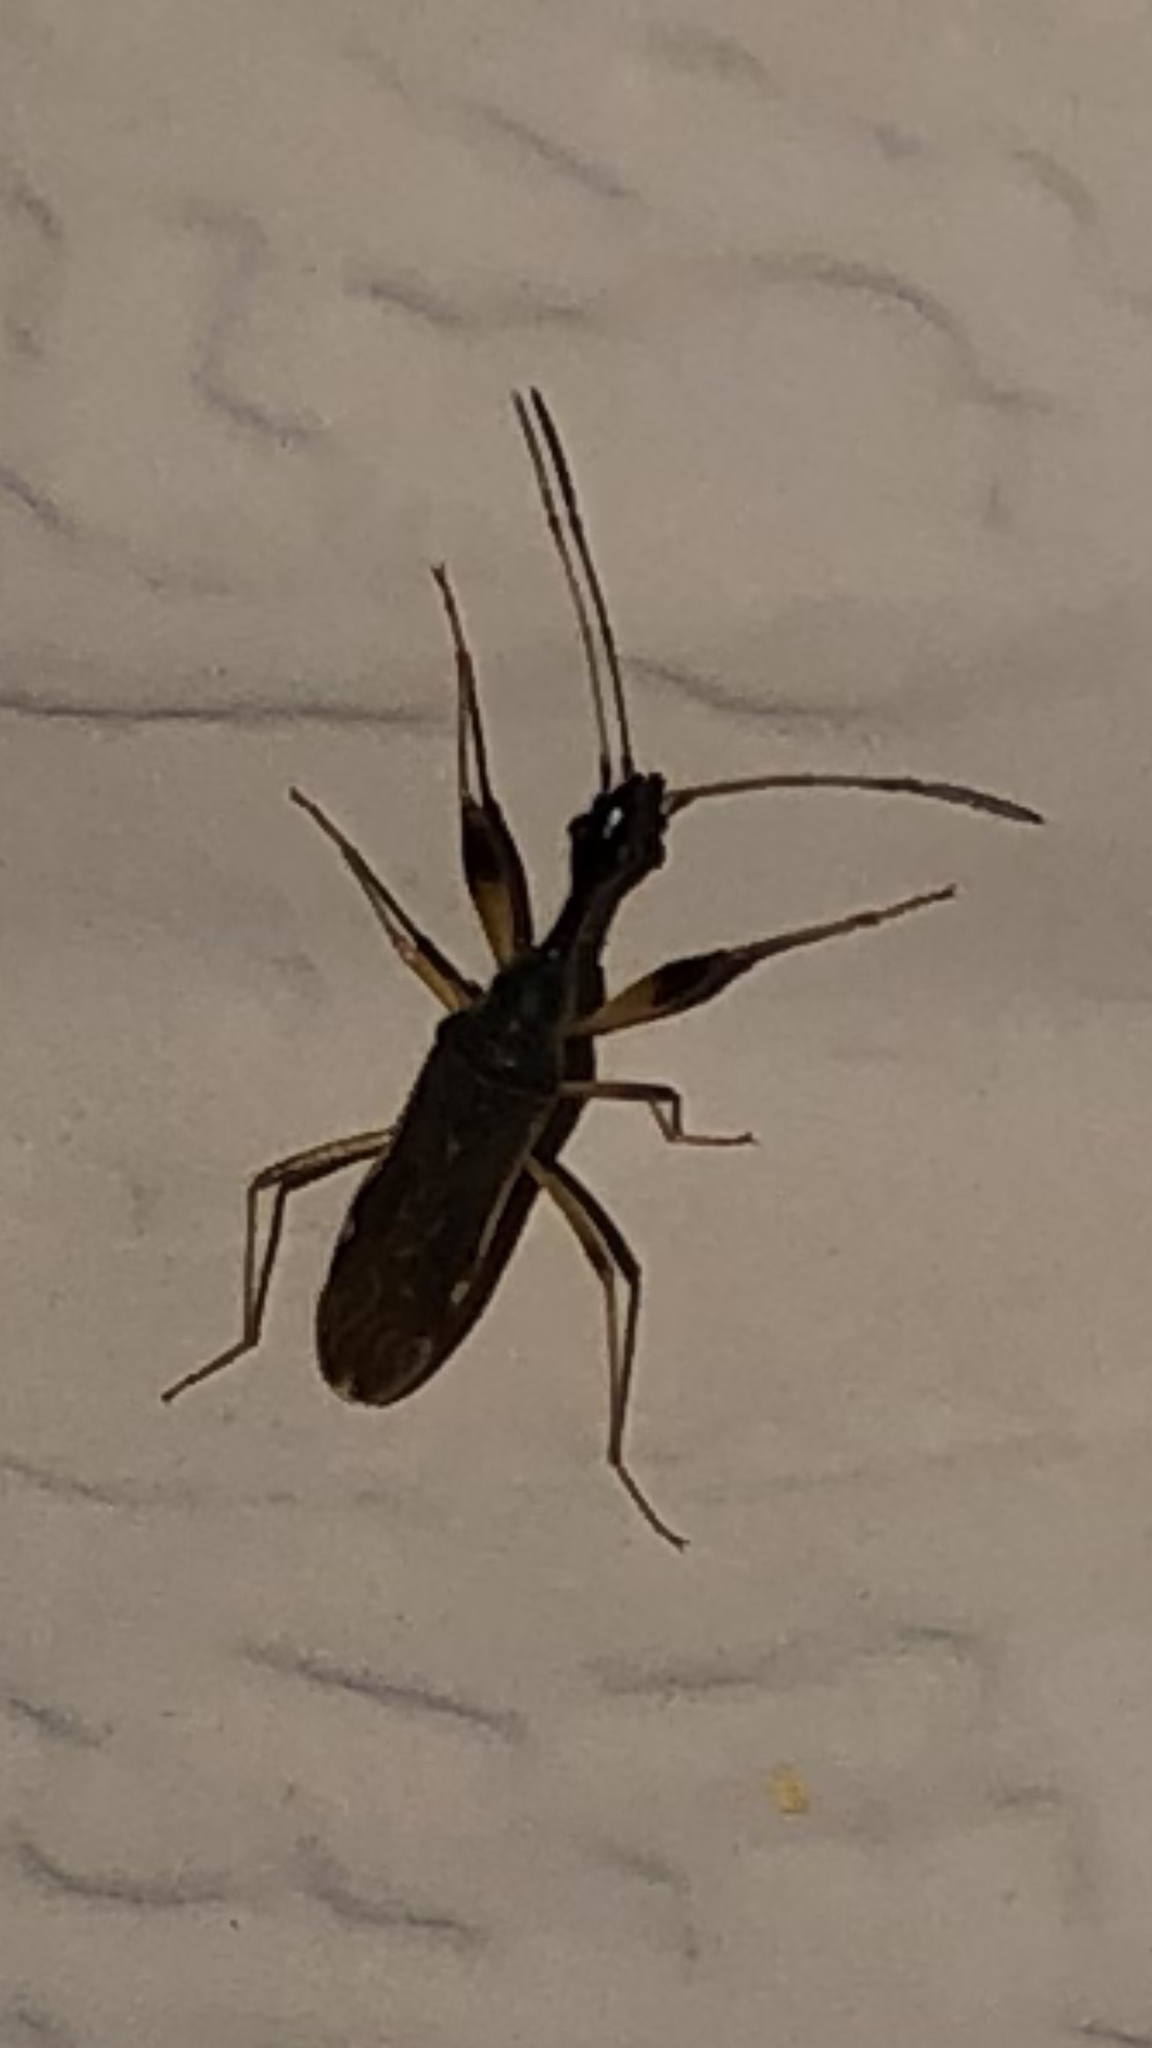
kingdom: Animalia
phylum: Arthropoda
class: Insecta
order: Hemiptera
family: Rhyparochromidae
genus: Myodocha
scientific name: Myodocha serripes
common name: Long-necked seed bug
